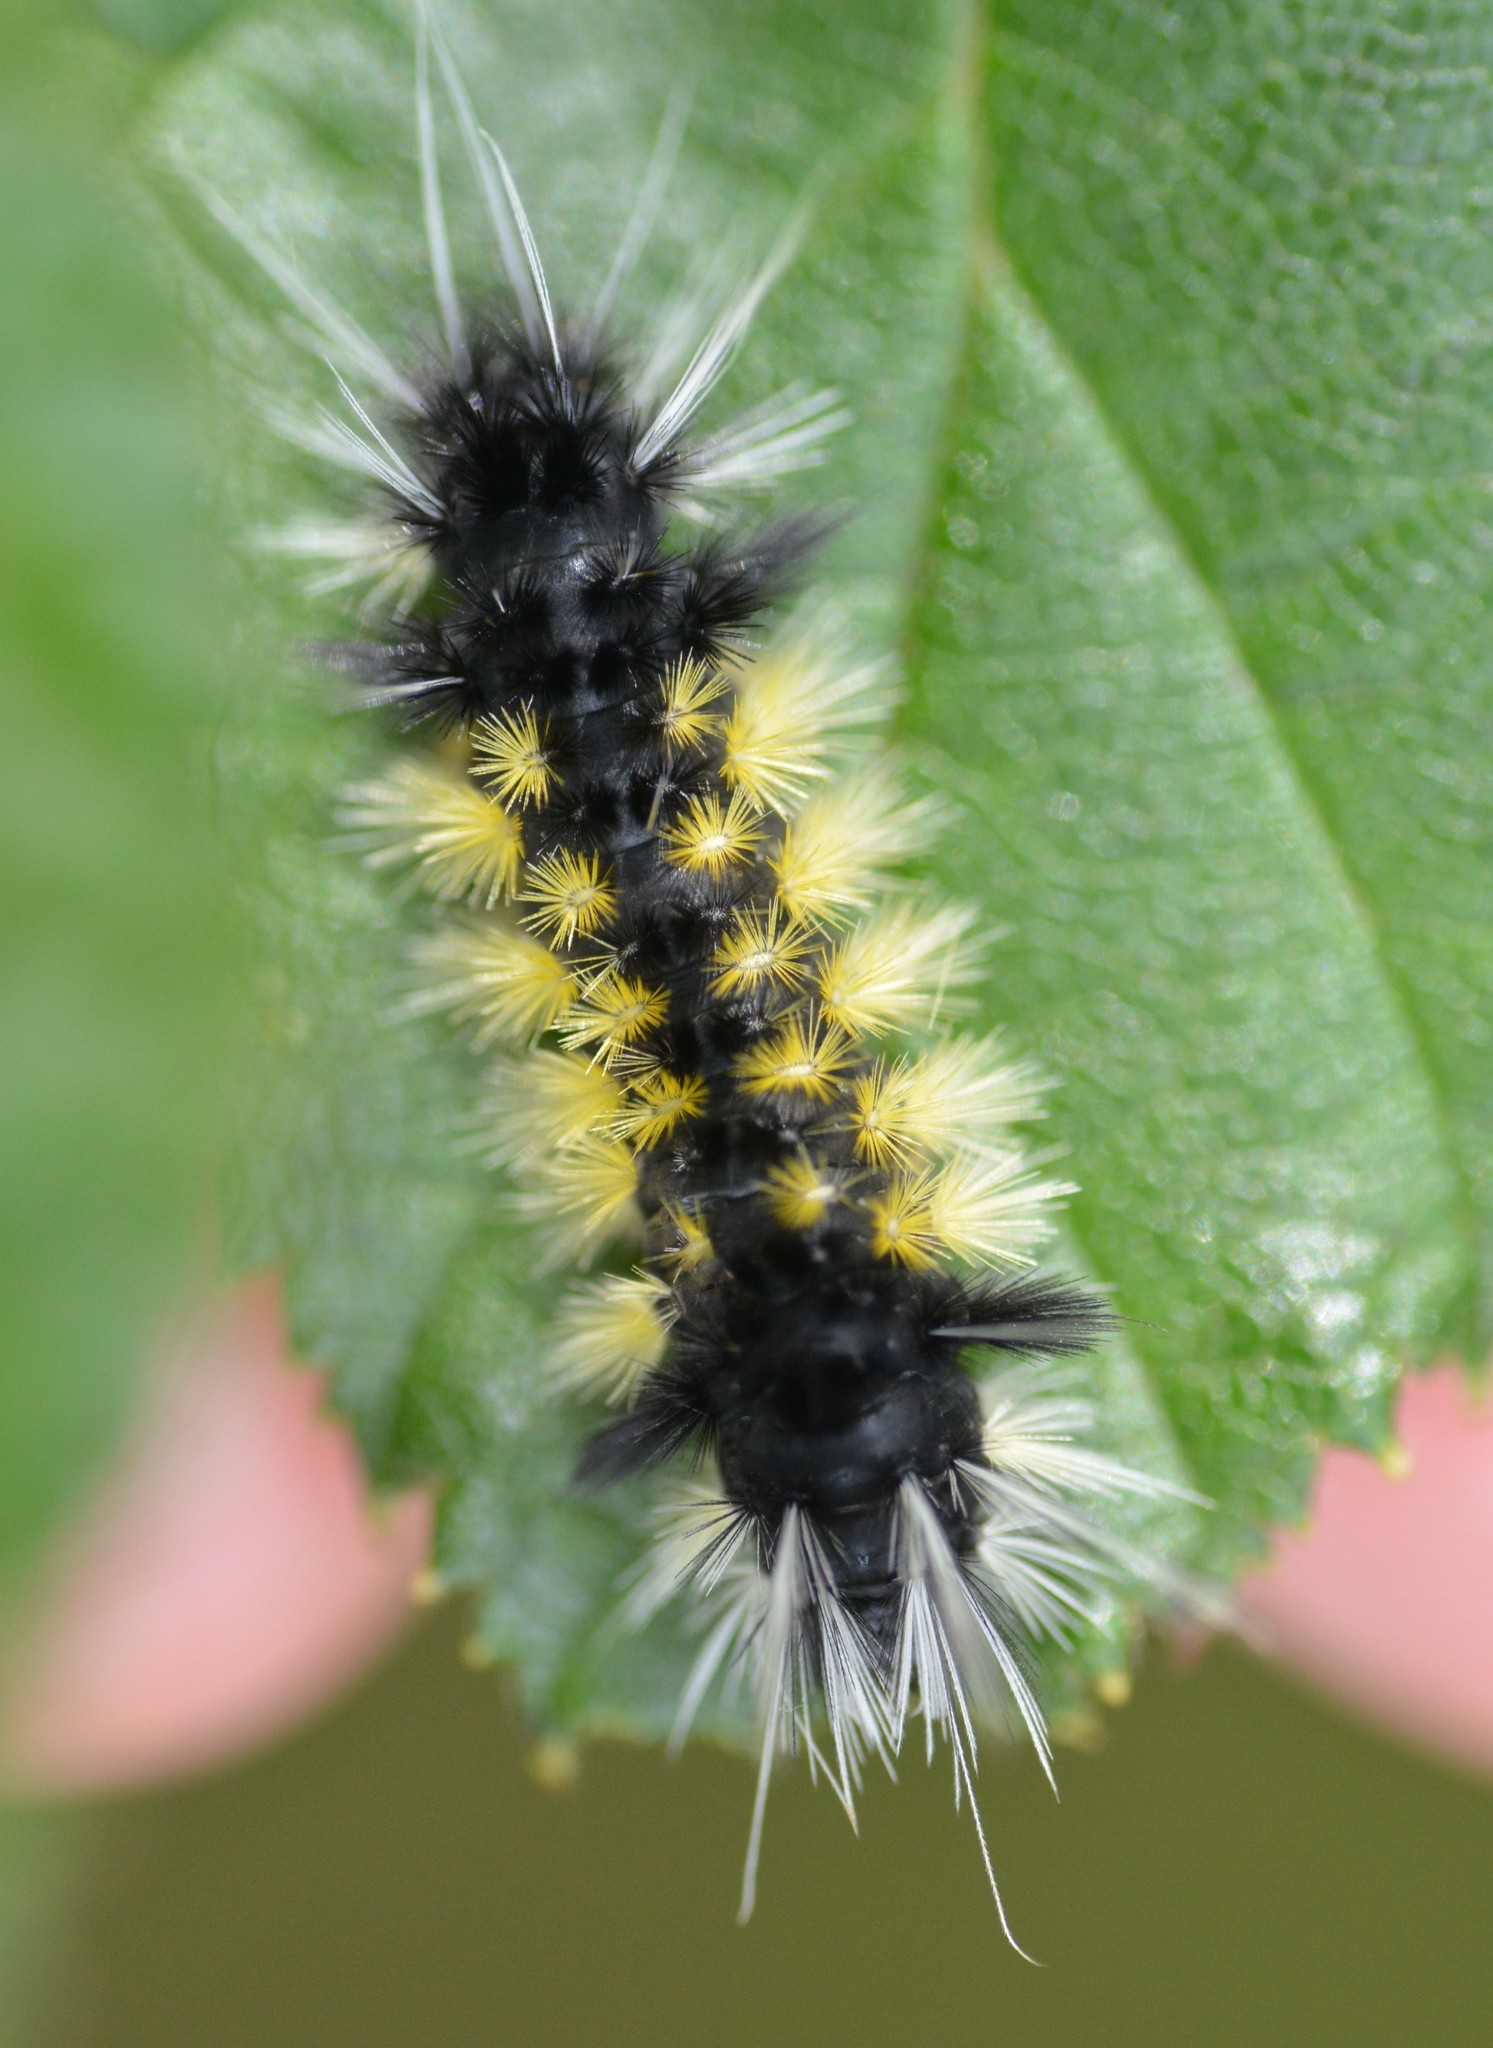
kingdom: Animalia
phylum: Arthropoda
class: Insecta
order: Lepidoptera
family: Erebidae
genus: Lophocampa
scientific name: Lophocampa maculata
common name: Spotted tussock moth
